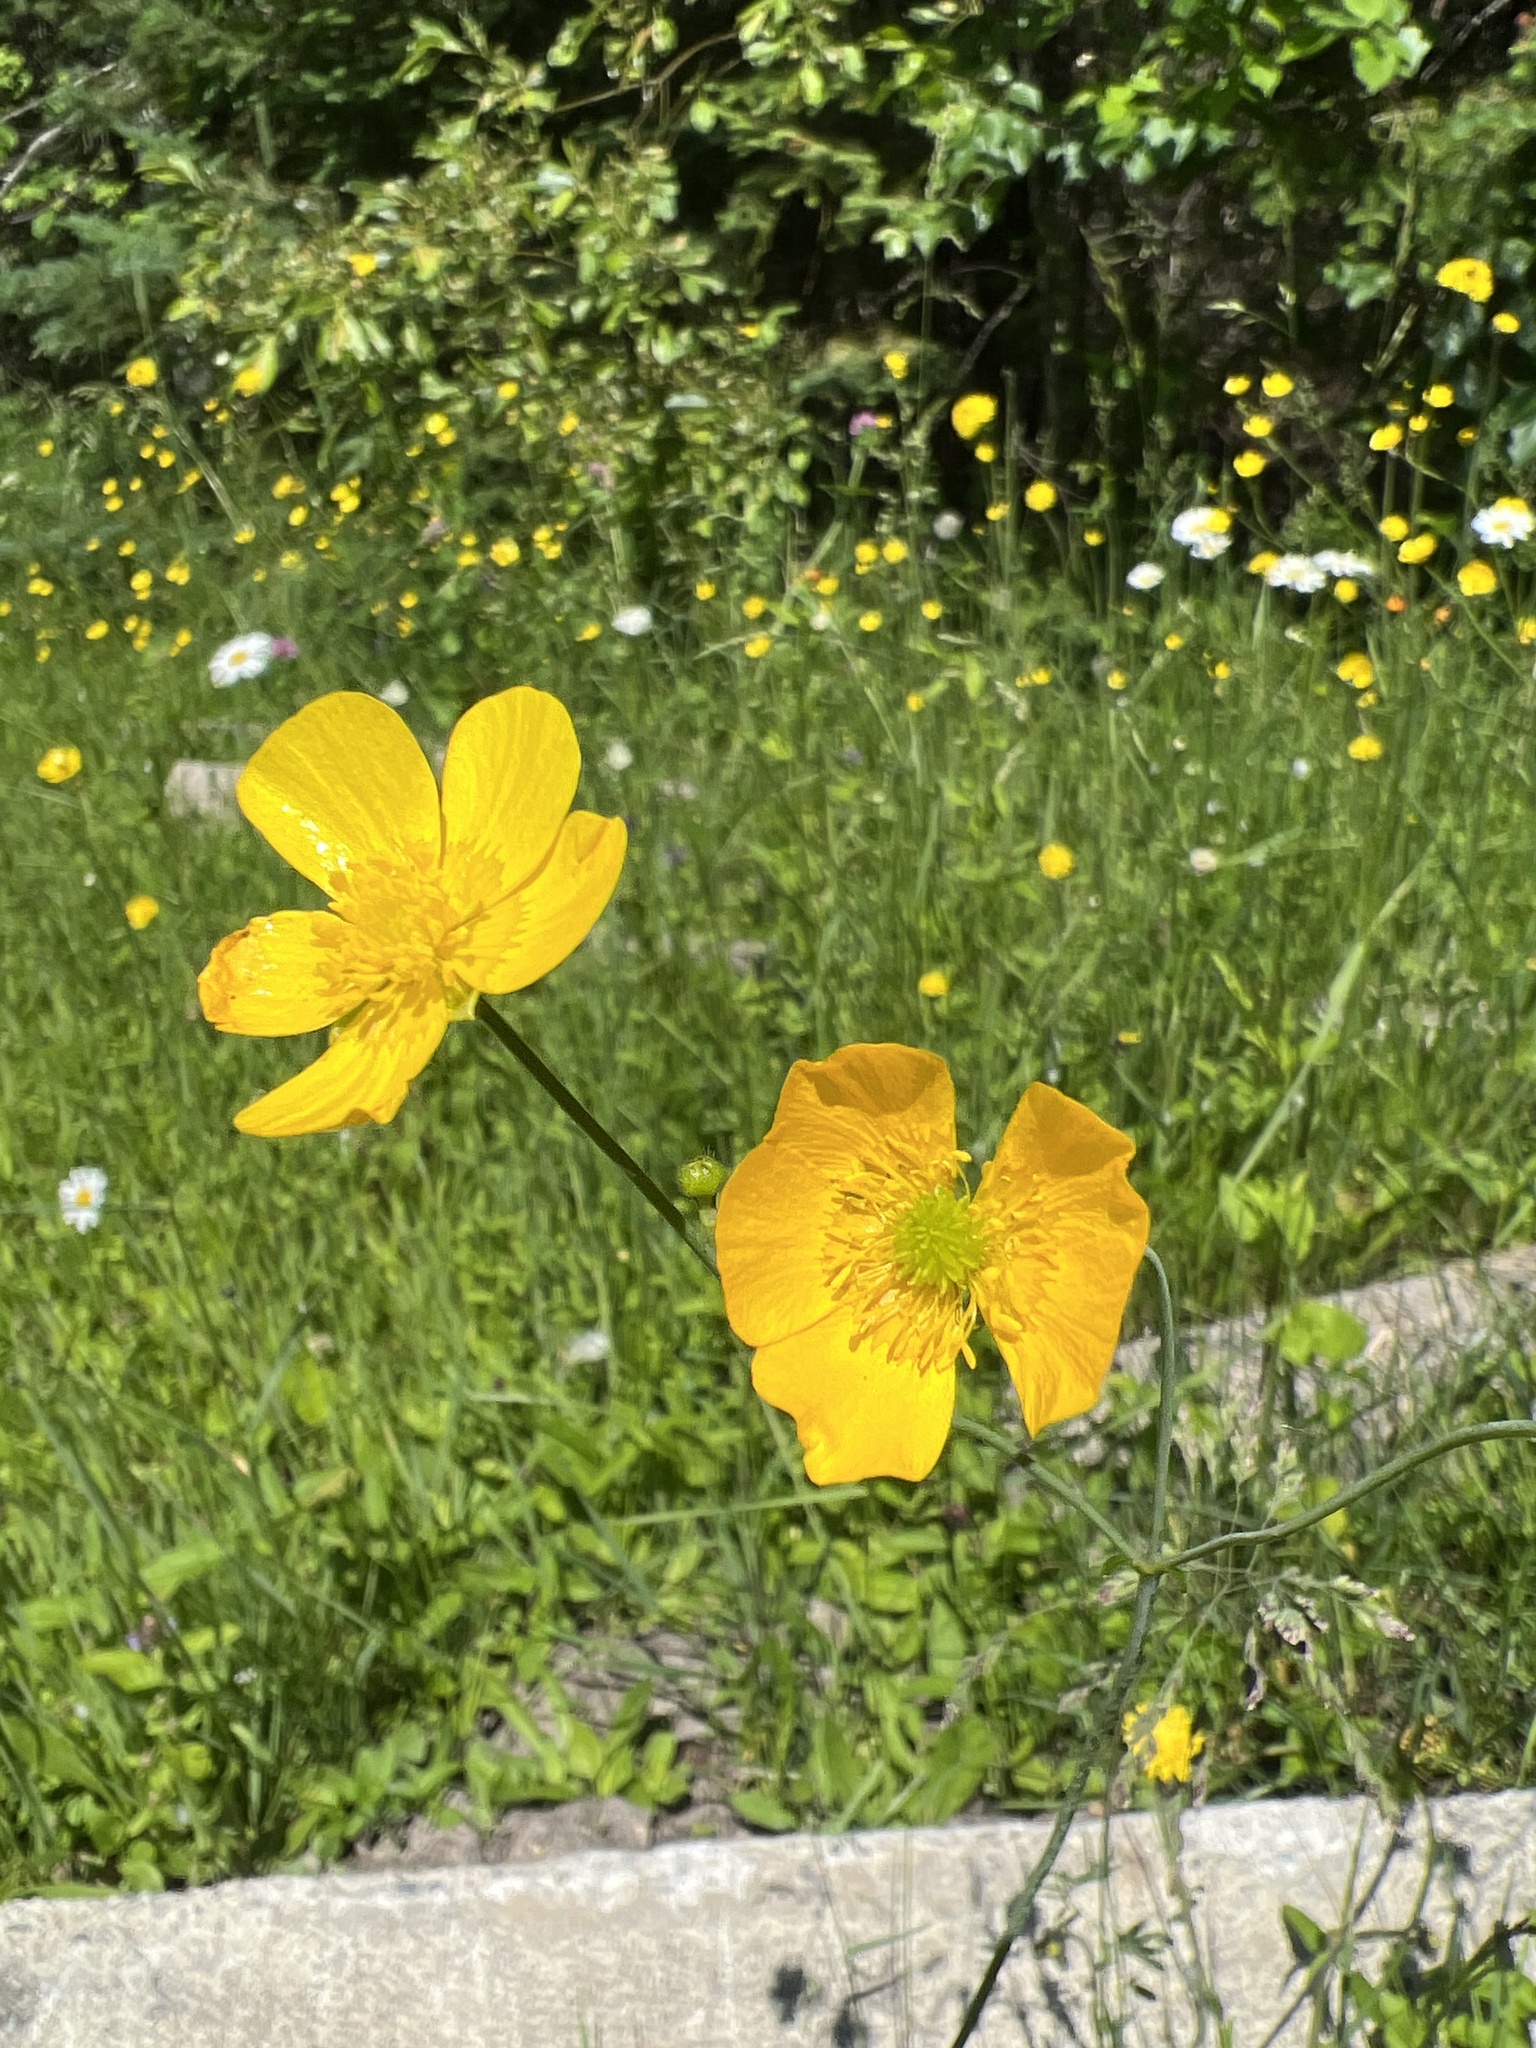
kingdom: Plantae
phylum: Tracheophyta
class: Magnoliopsida
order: Ranunculales
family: Ranunculaceae
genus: Ranunculus
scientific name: Ranunculus acris
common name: Meadow buttercup
